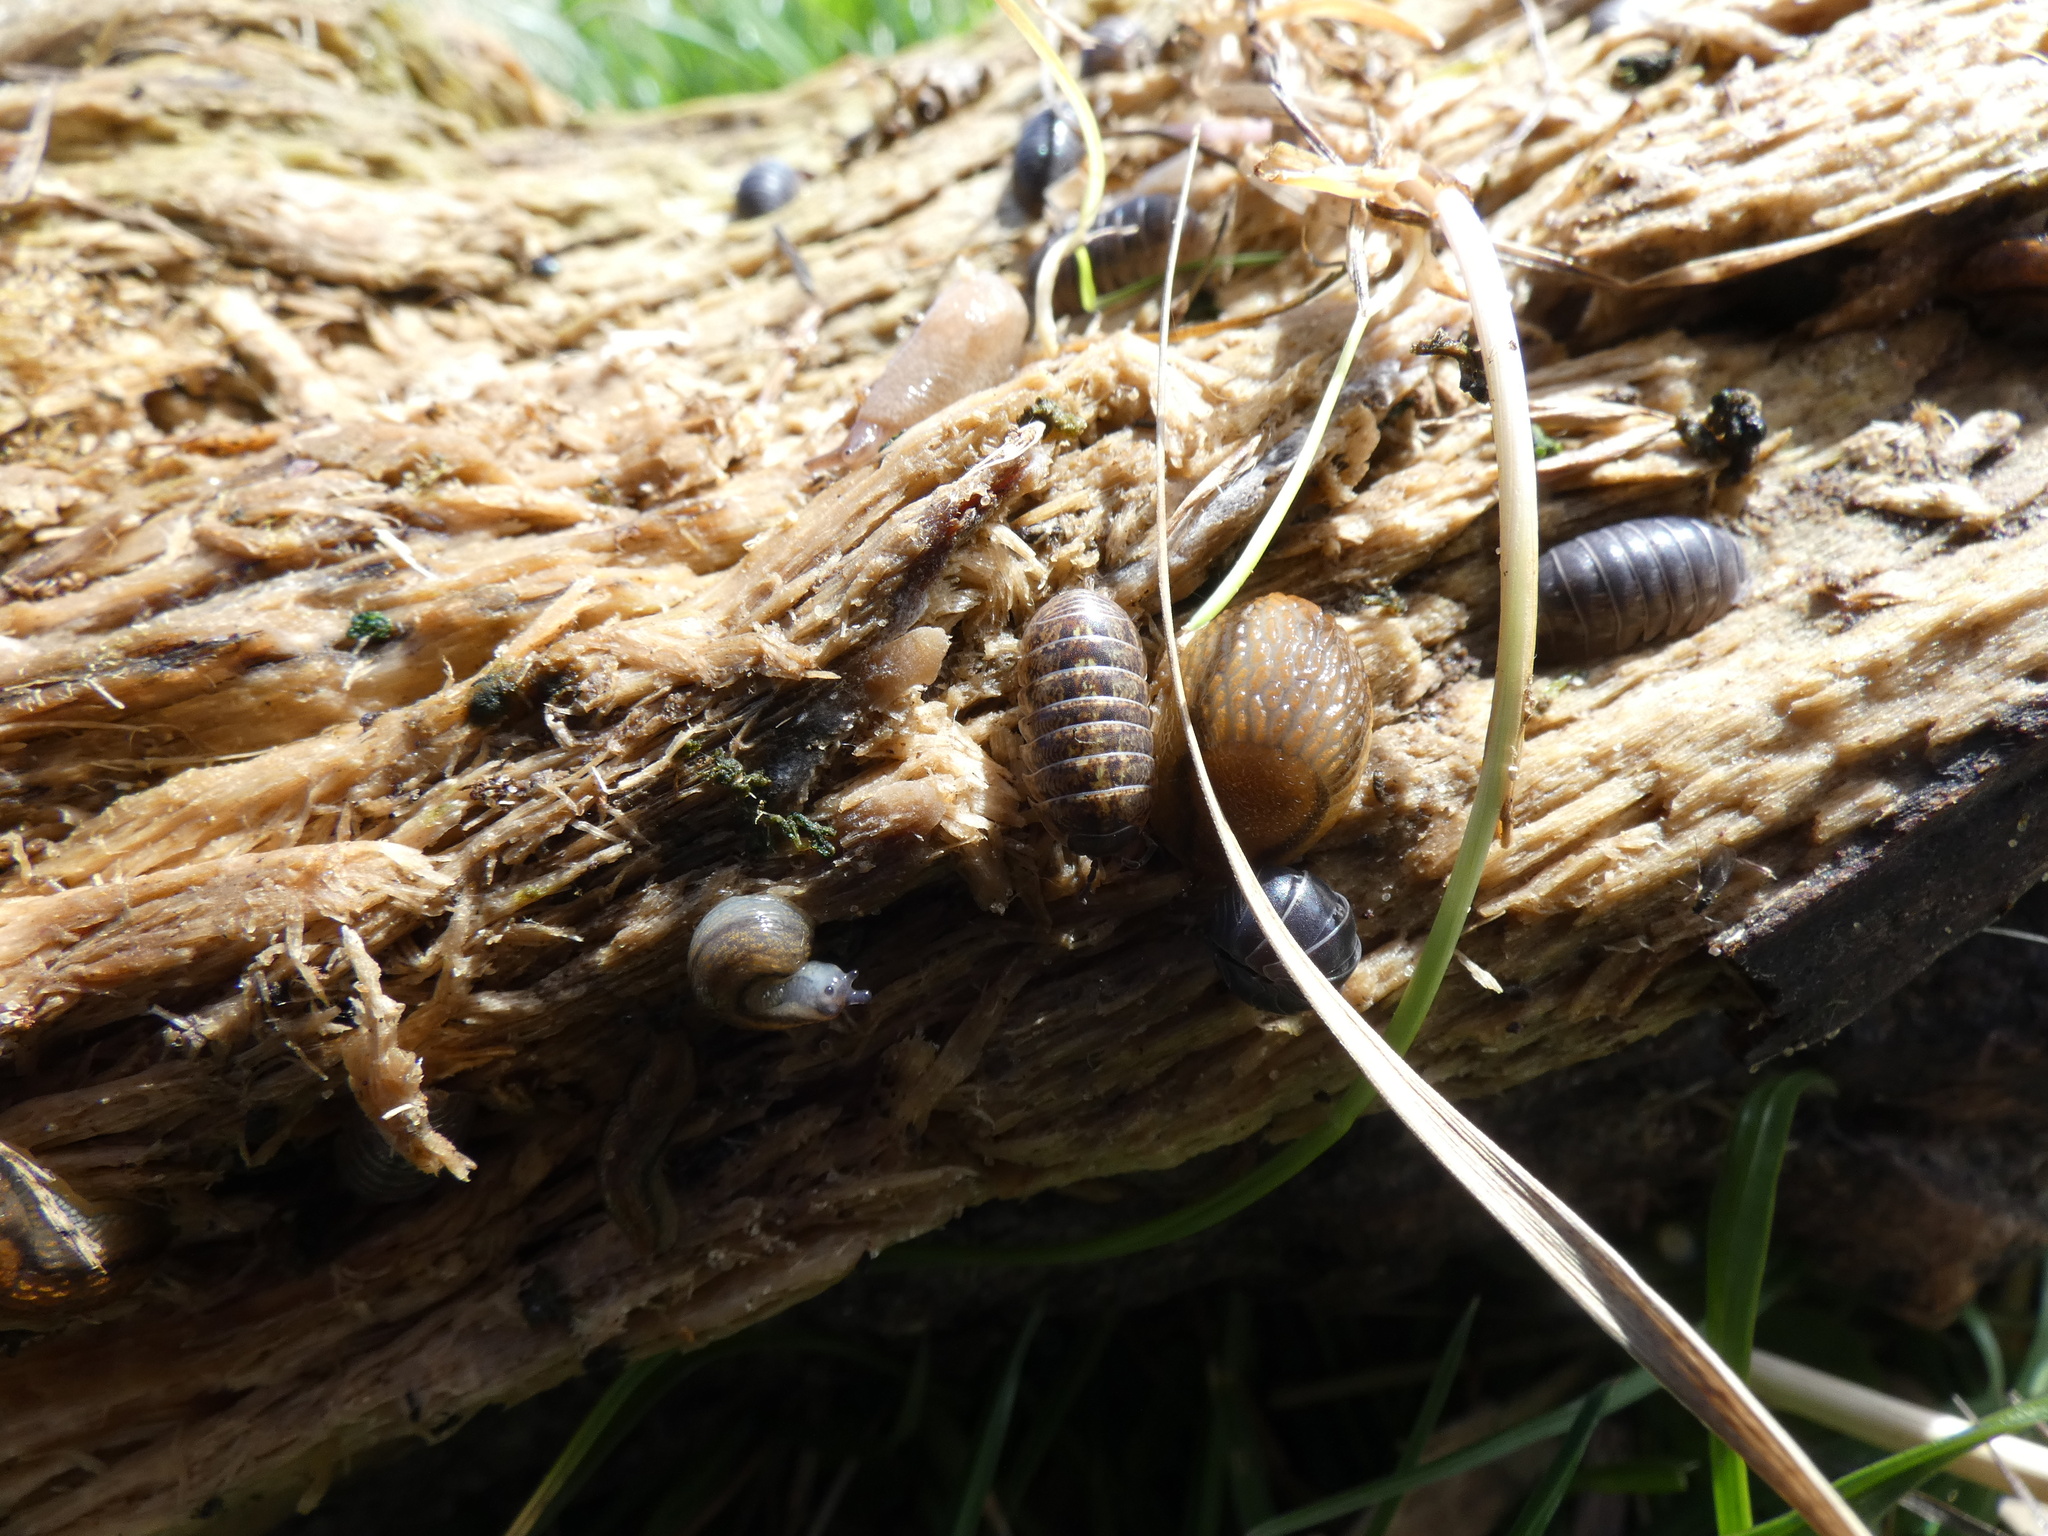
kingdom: Animalia
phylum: Arthropoda
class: Malacostraca
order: Isopoda
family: Armadillidiidae
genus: Armadillidium
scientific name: Armadillidium vulgare
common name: Common pill woodlouse
